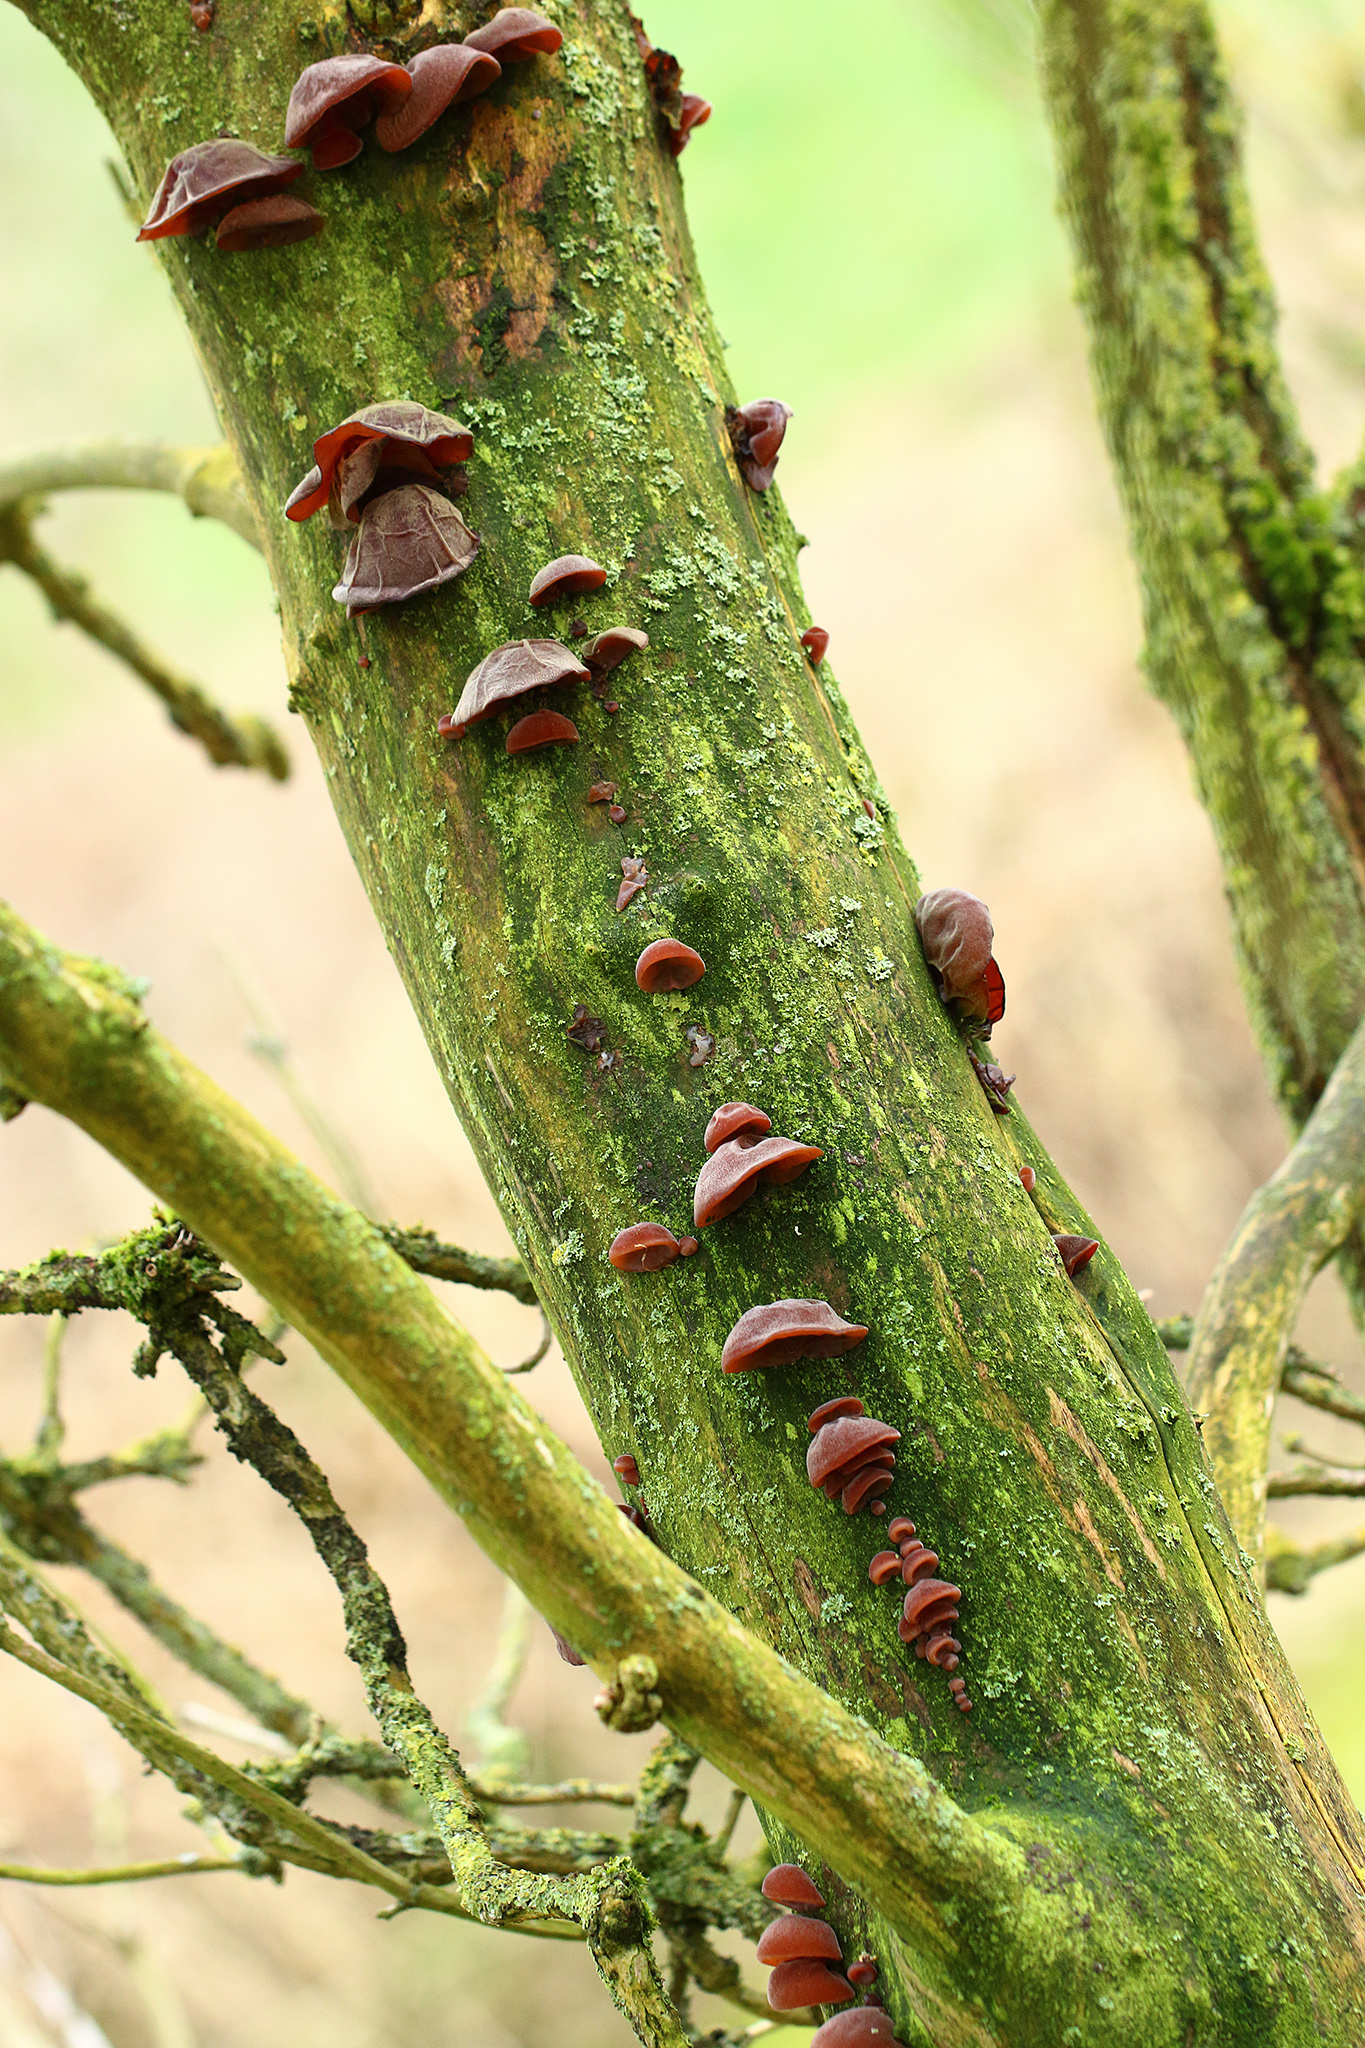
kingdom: Fungi
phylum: Basidiomycota
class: Agaricomycetes
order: Auriculariales
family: Auriculariaceae
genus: Auricularia
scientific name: Auricularia auricula-judae
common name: Jelly ear
